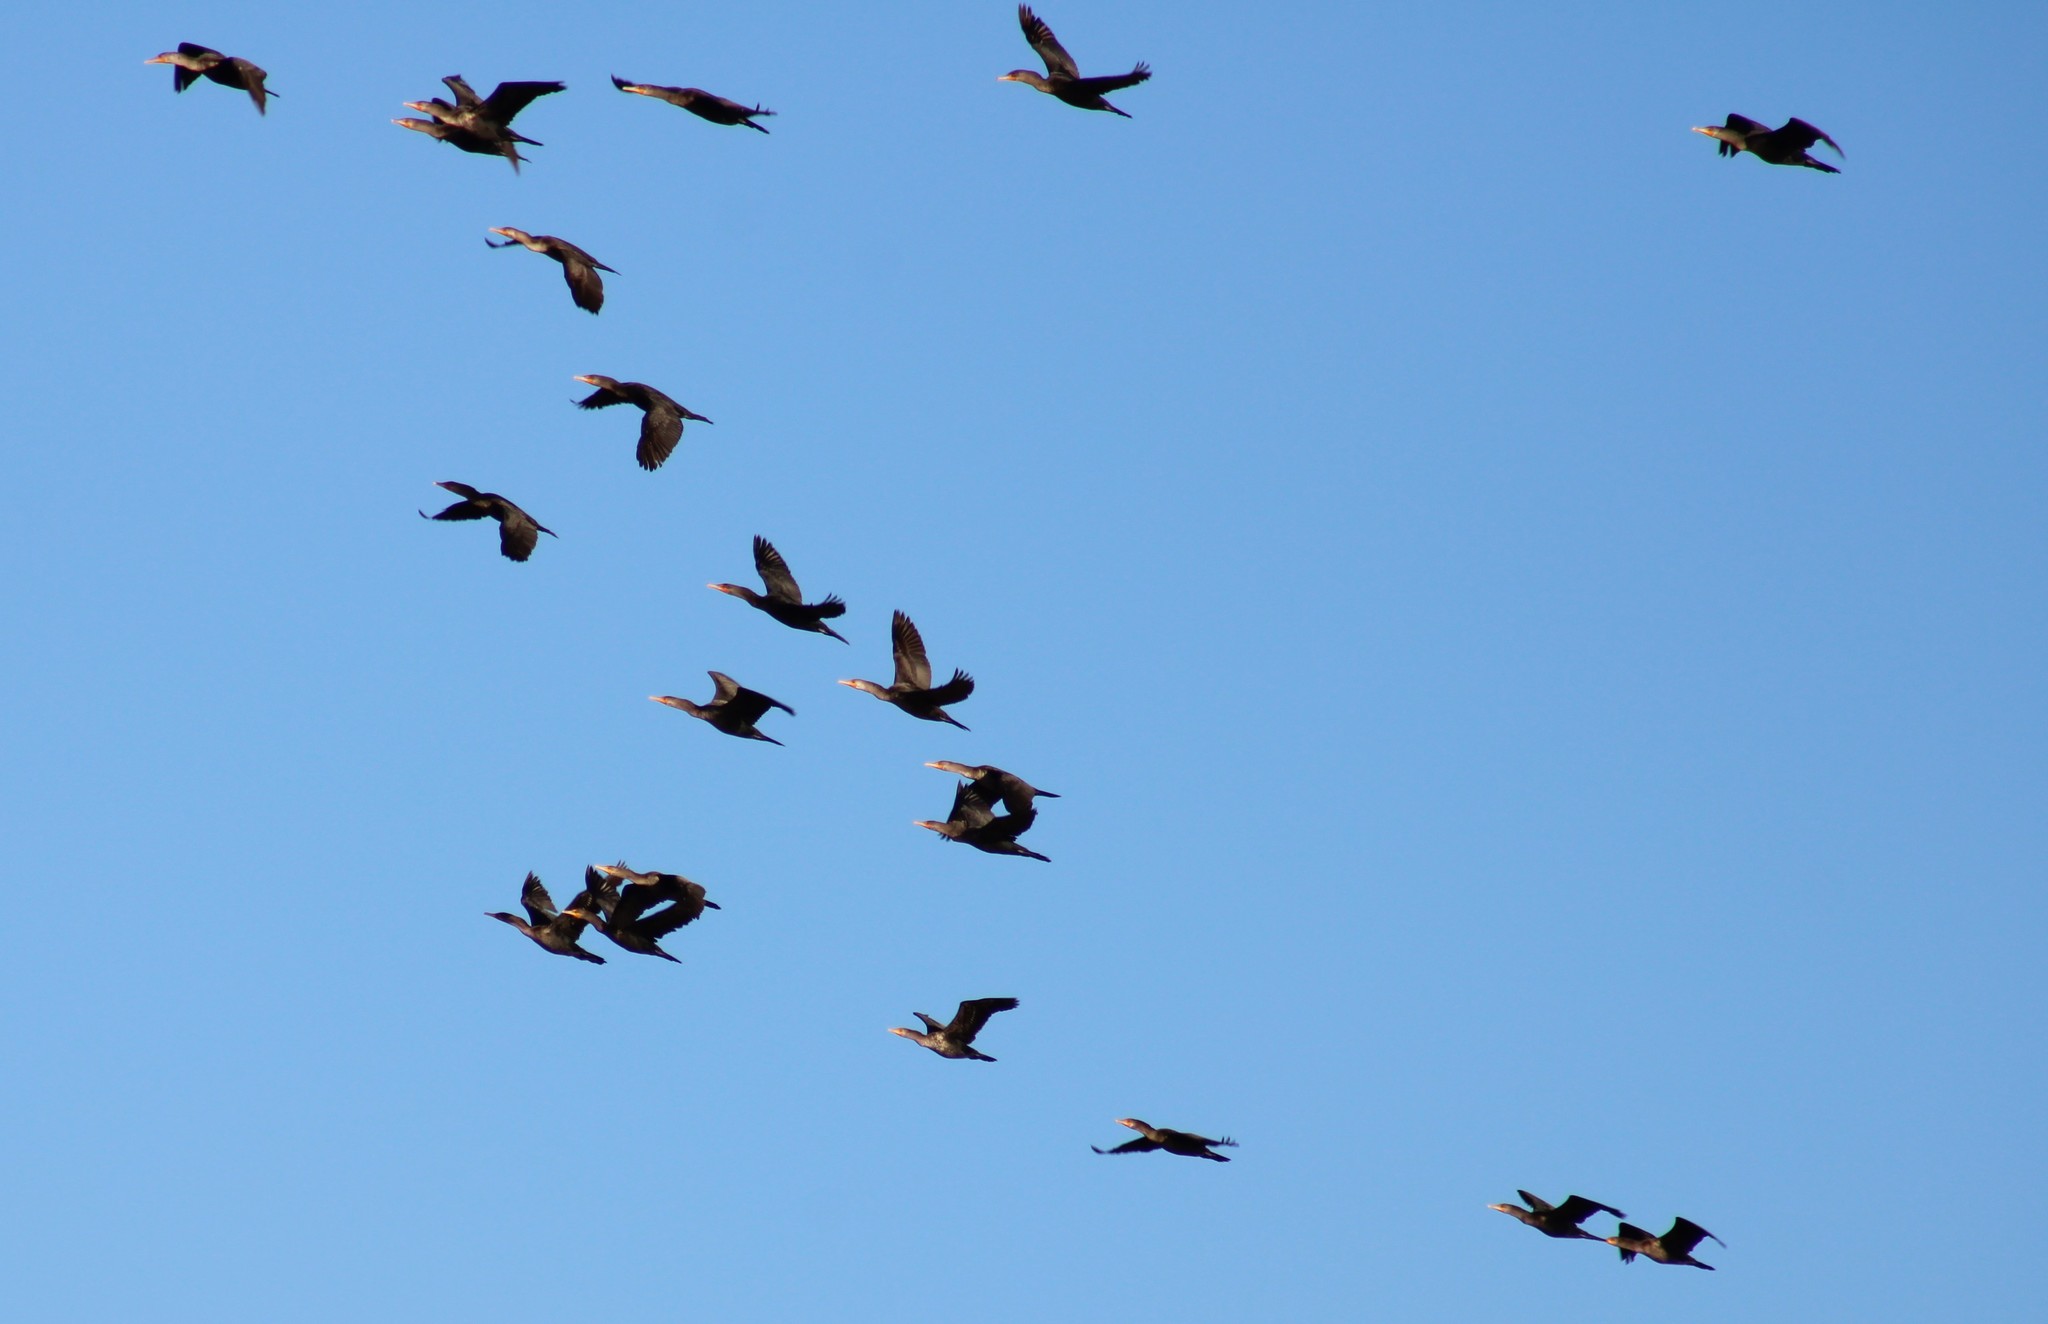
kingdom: Animalia
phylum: Chordata
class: Aves
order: Suliformes
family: Phalacrocoracidae
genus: Phalacrocorax
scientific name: Phalacrocorax auritus
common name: Double-crested cormorant
